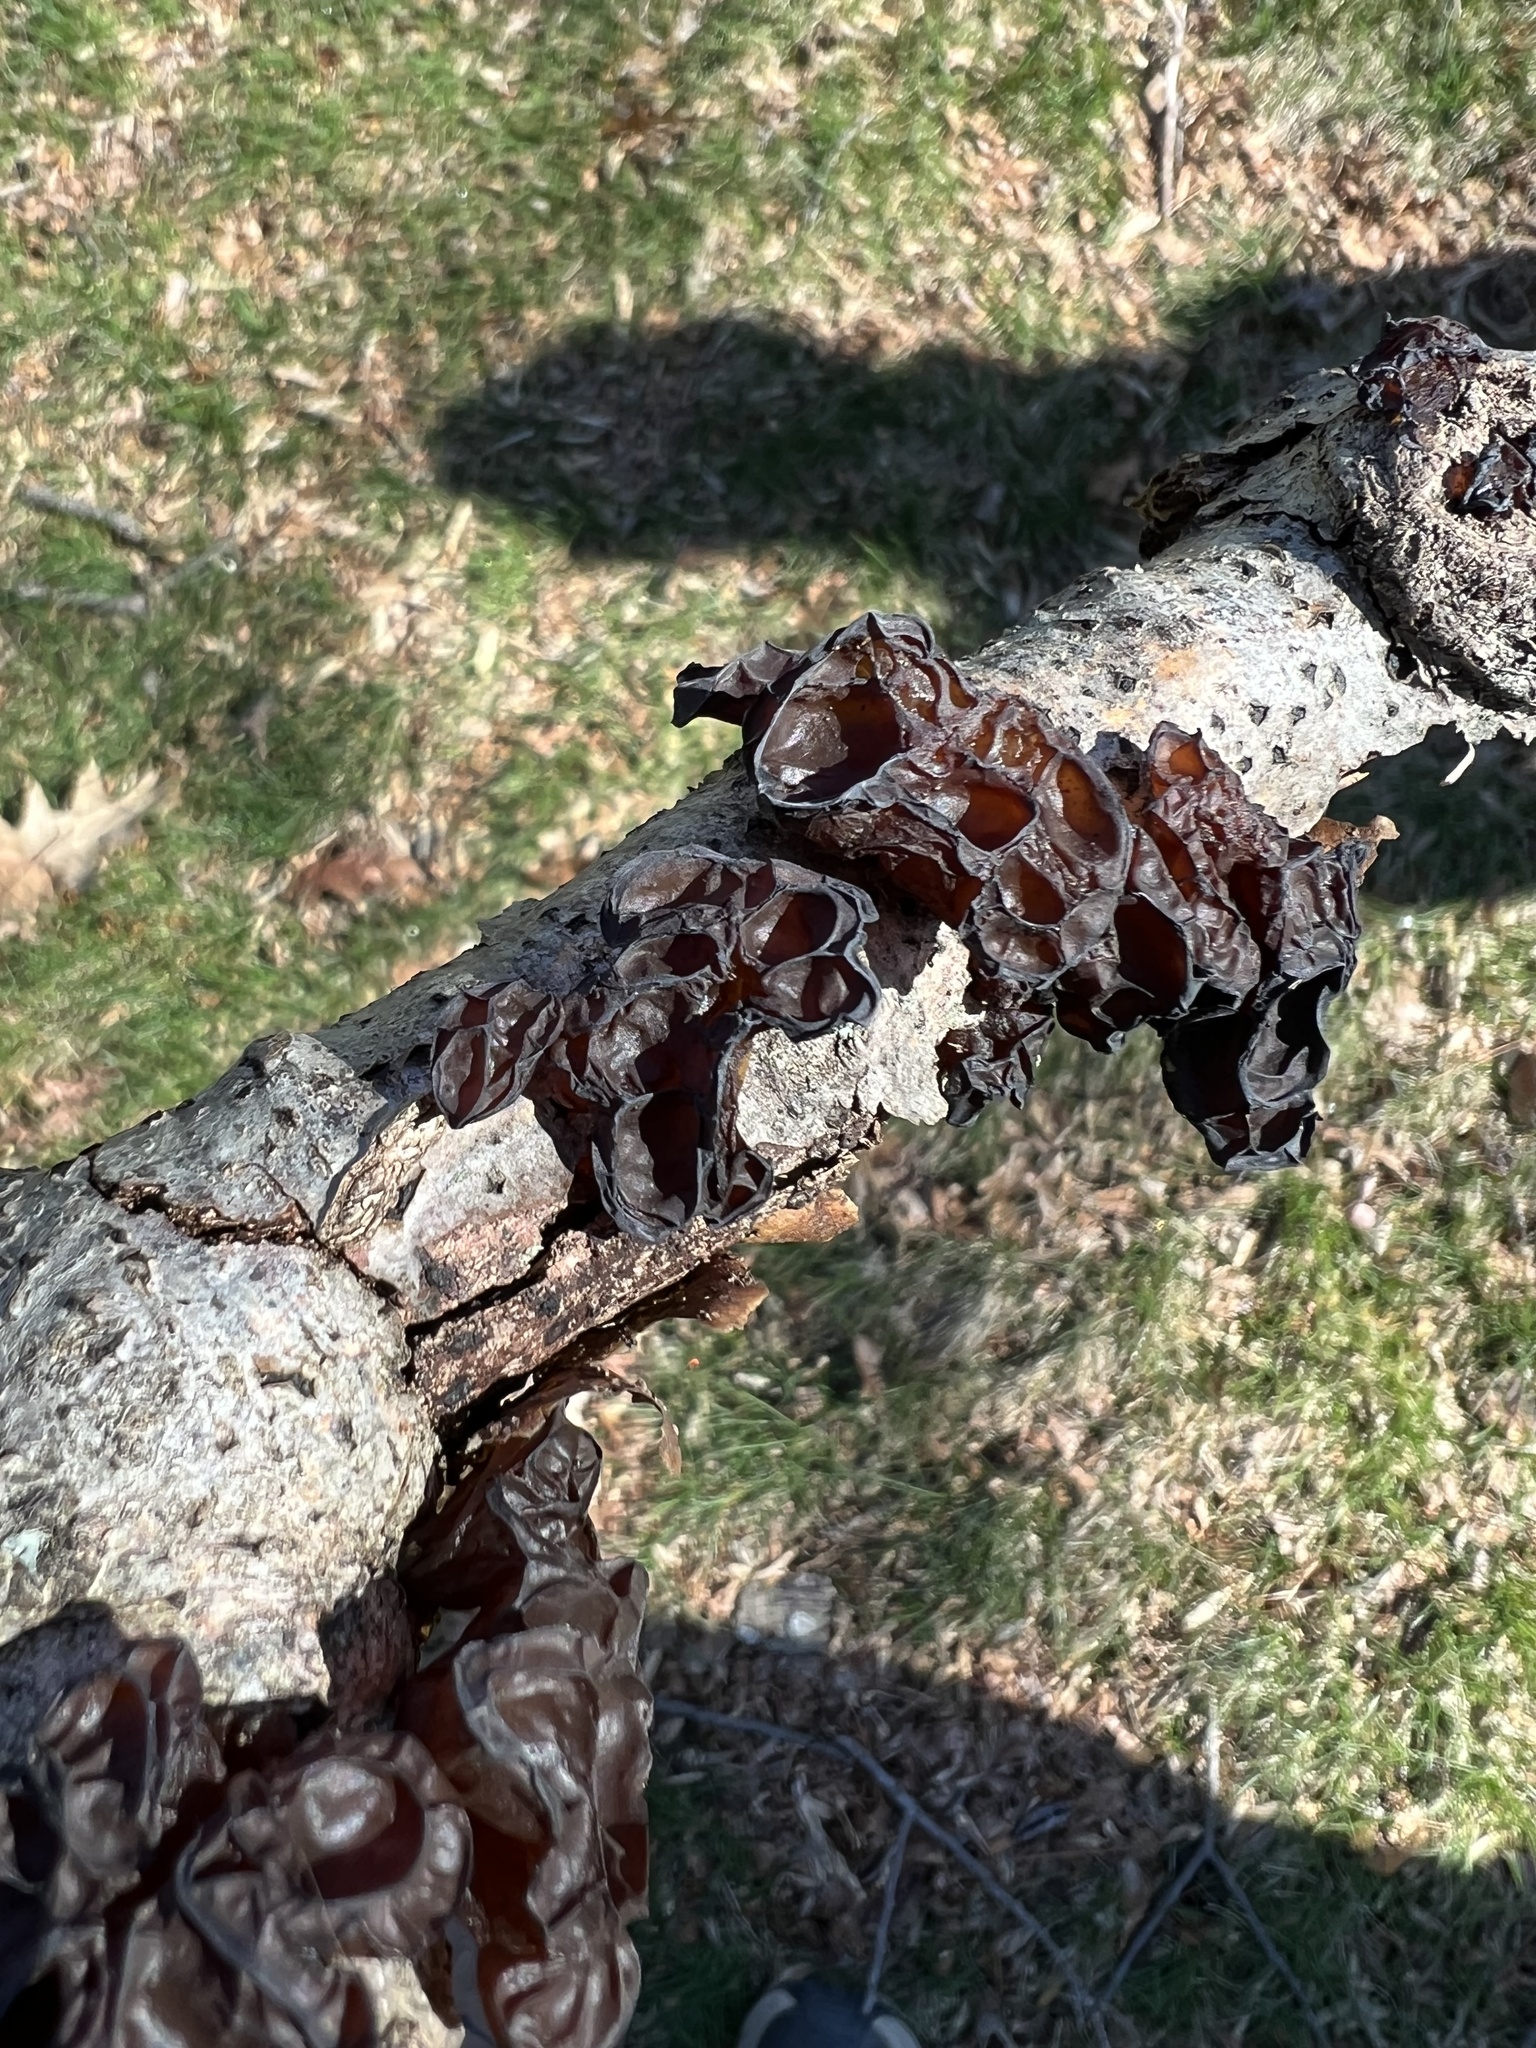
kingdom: Fungi
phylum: Basidiomycota
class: Agaricomycetes
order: Auriculariales
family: Auriculariaceae
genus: Exidia
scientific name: Exidia
